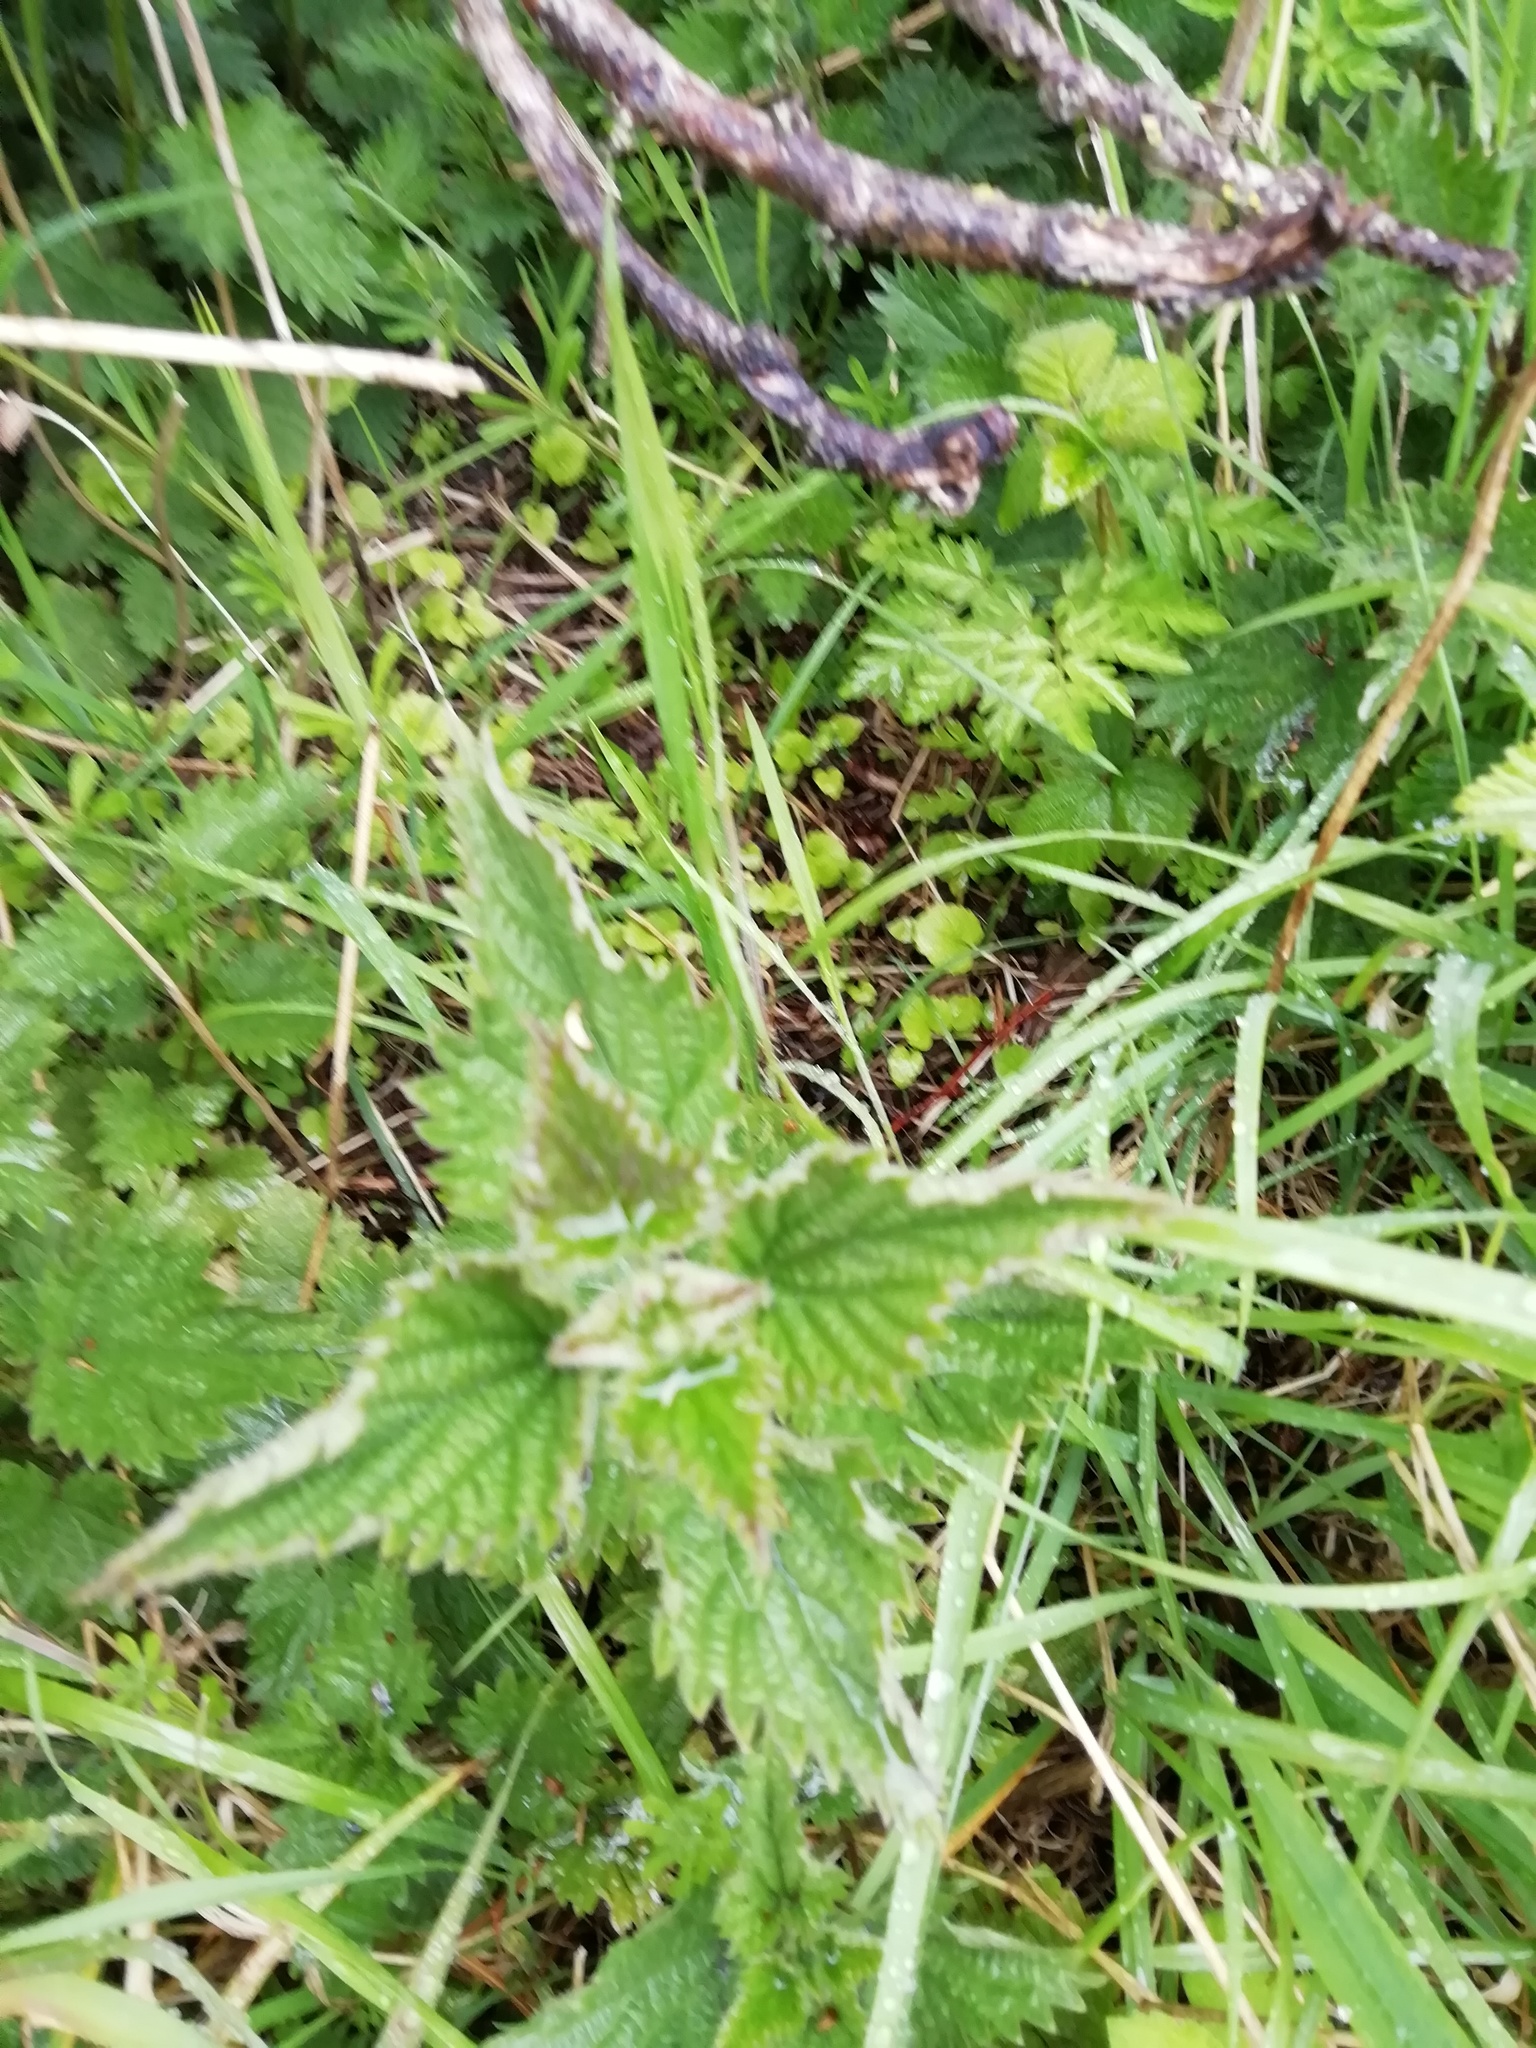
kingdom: Plantae
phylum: Tracheophyta
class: Magnoliopsida
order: Rosales
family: Urticaceae
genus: Urtica
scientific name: Urtica dioica
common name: Common nettle
